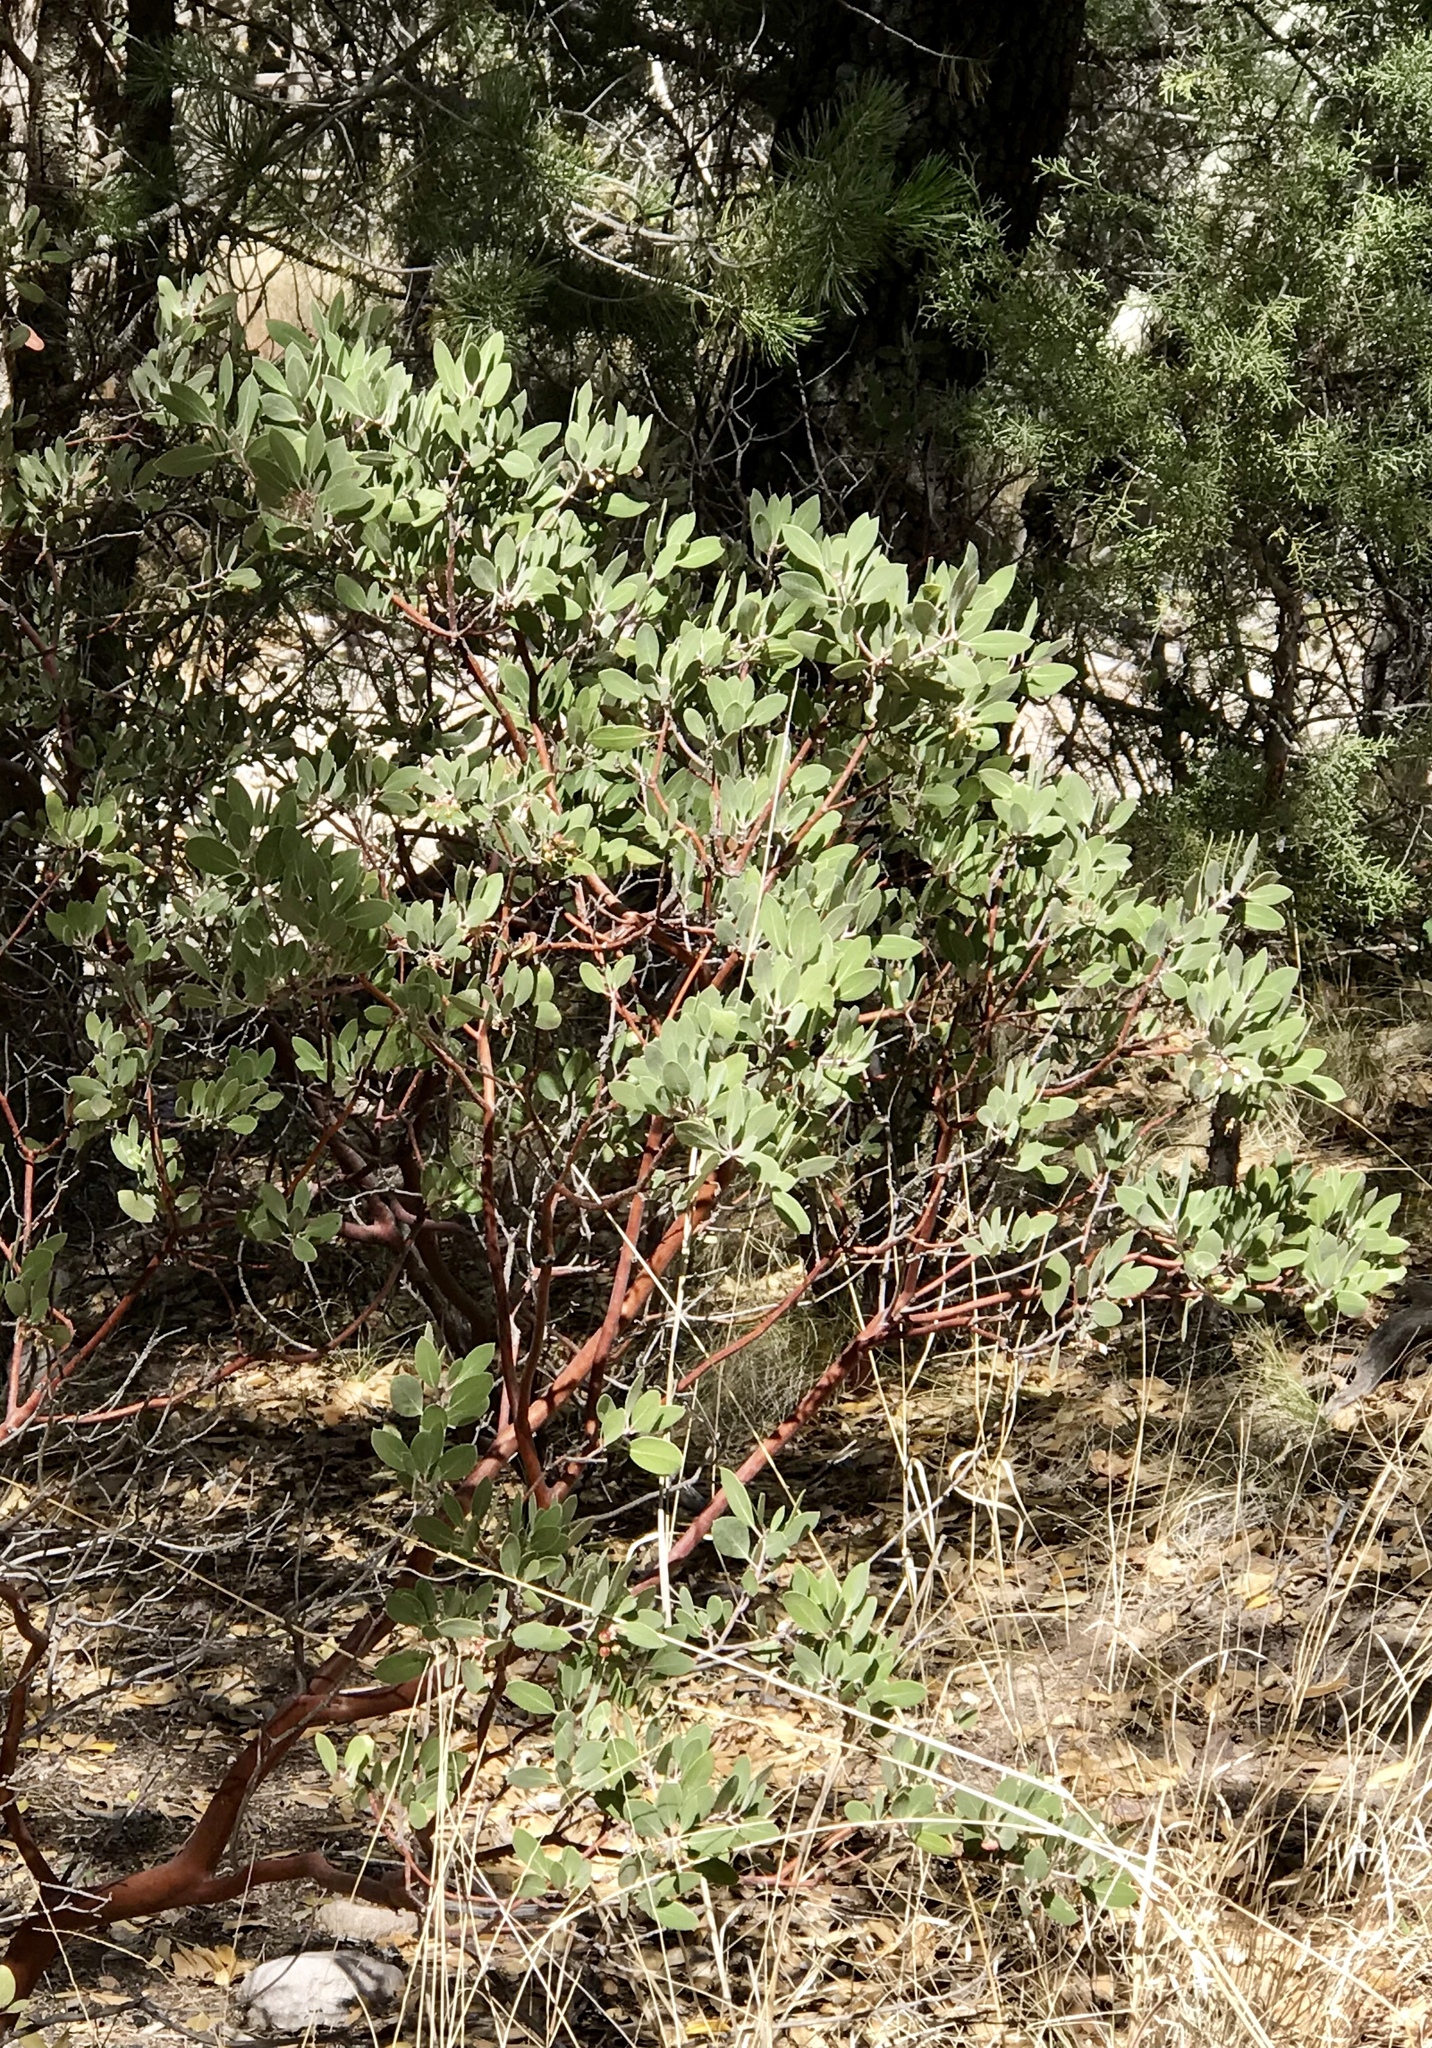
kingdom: Plantae
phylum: Tracheophyta
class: Magnoliopsida
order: Ericales
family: Ericaceae
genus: Arctostaphylos
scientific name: Arctostaphylos pungens
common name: Mexican manzanita
